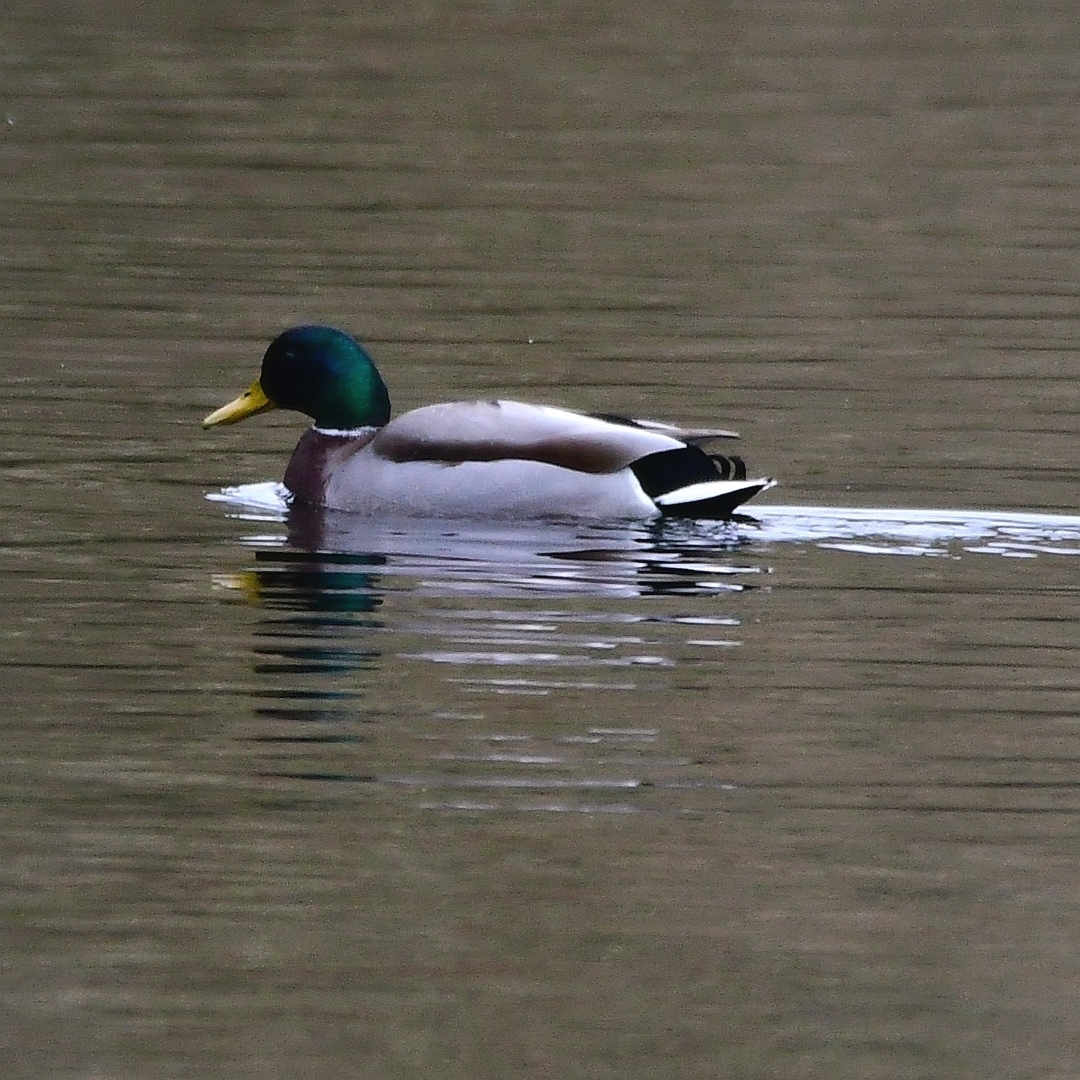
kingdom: Animalia
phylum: Chordata
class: Aves
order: Anseriformes
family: Anatidae
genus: Anas
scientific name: Anas platyrhynchos
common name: Mallard
